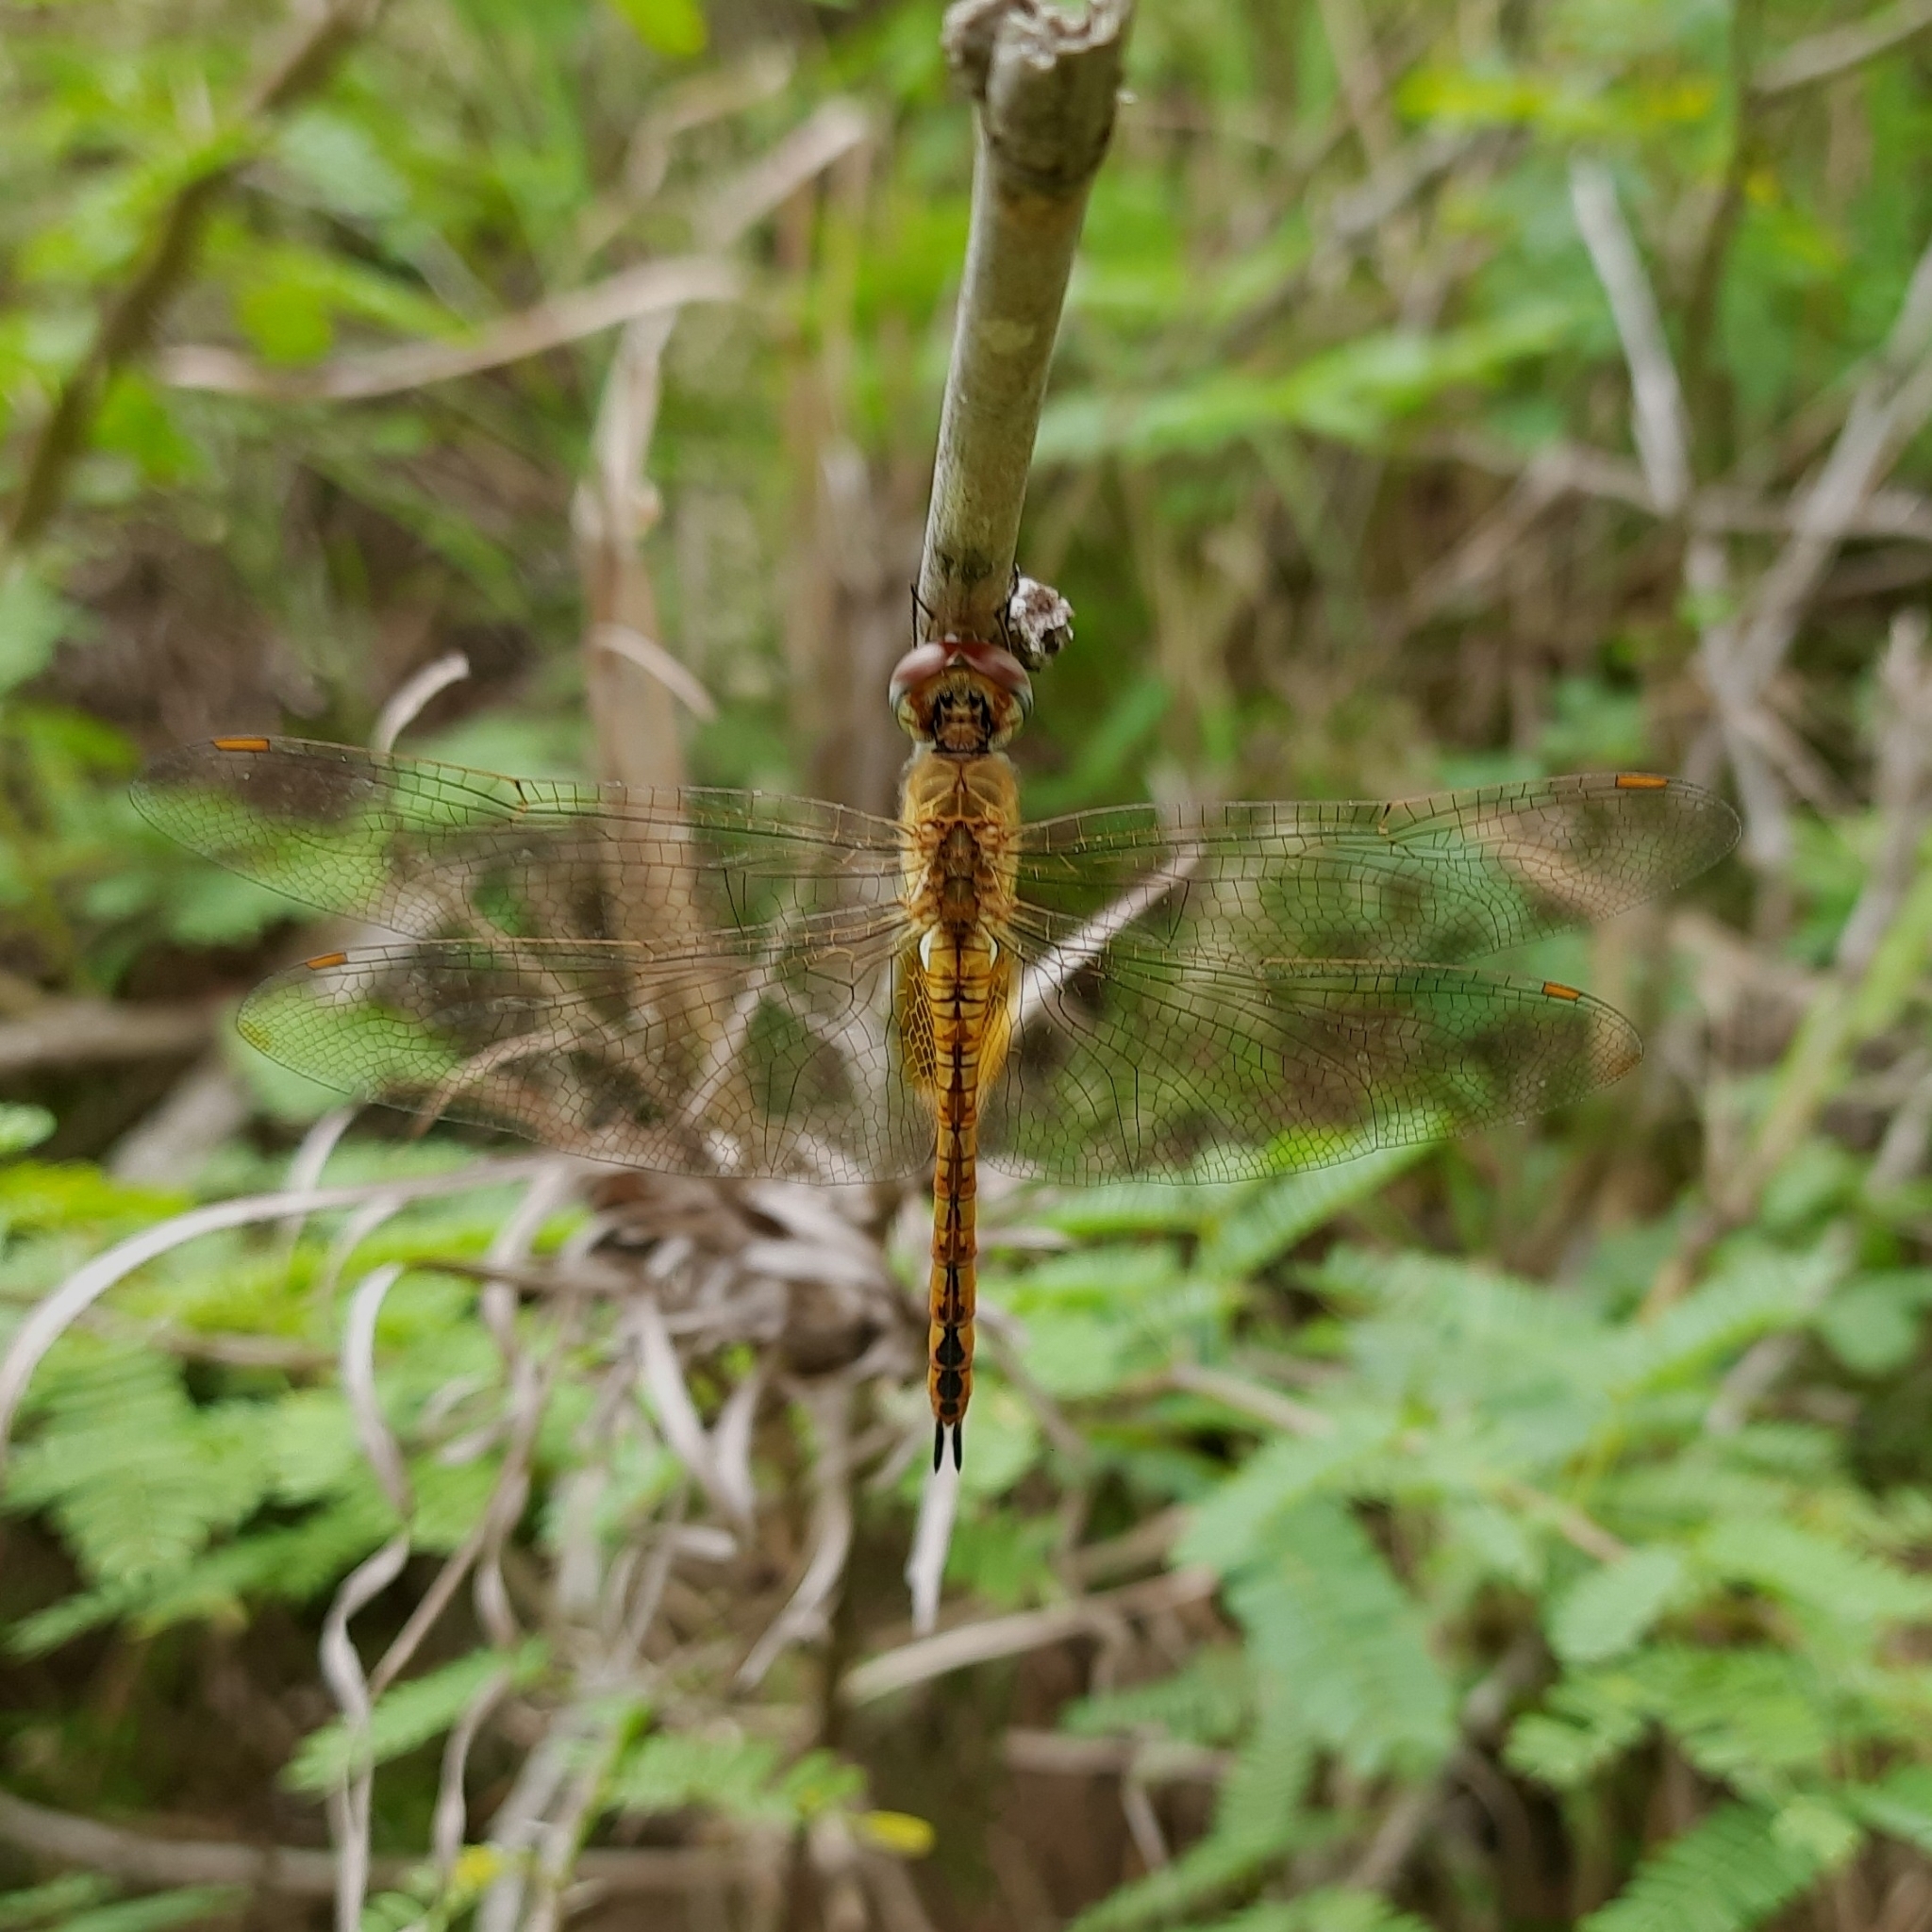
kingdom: Animalia
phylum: Arthropoda
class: Insecta
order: Odonata
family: Libellulidae
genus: Pantala
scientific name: Pantala flavescens
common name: Wandering glider
